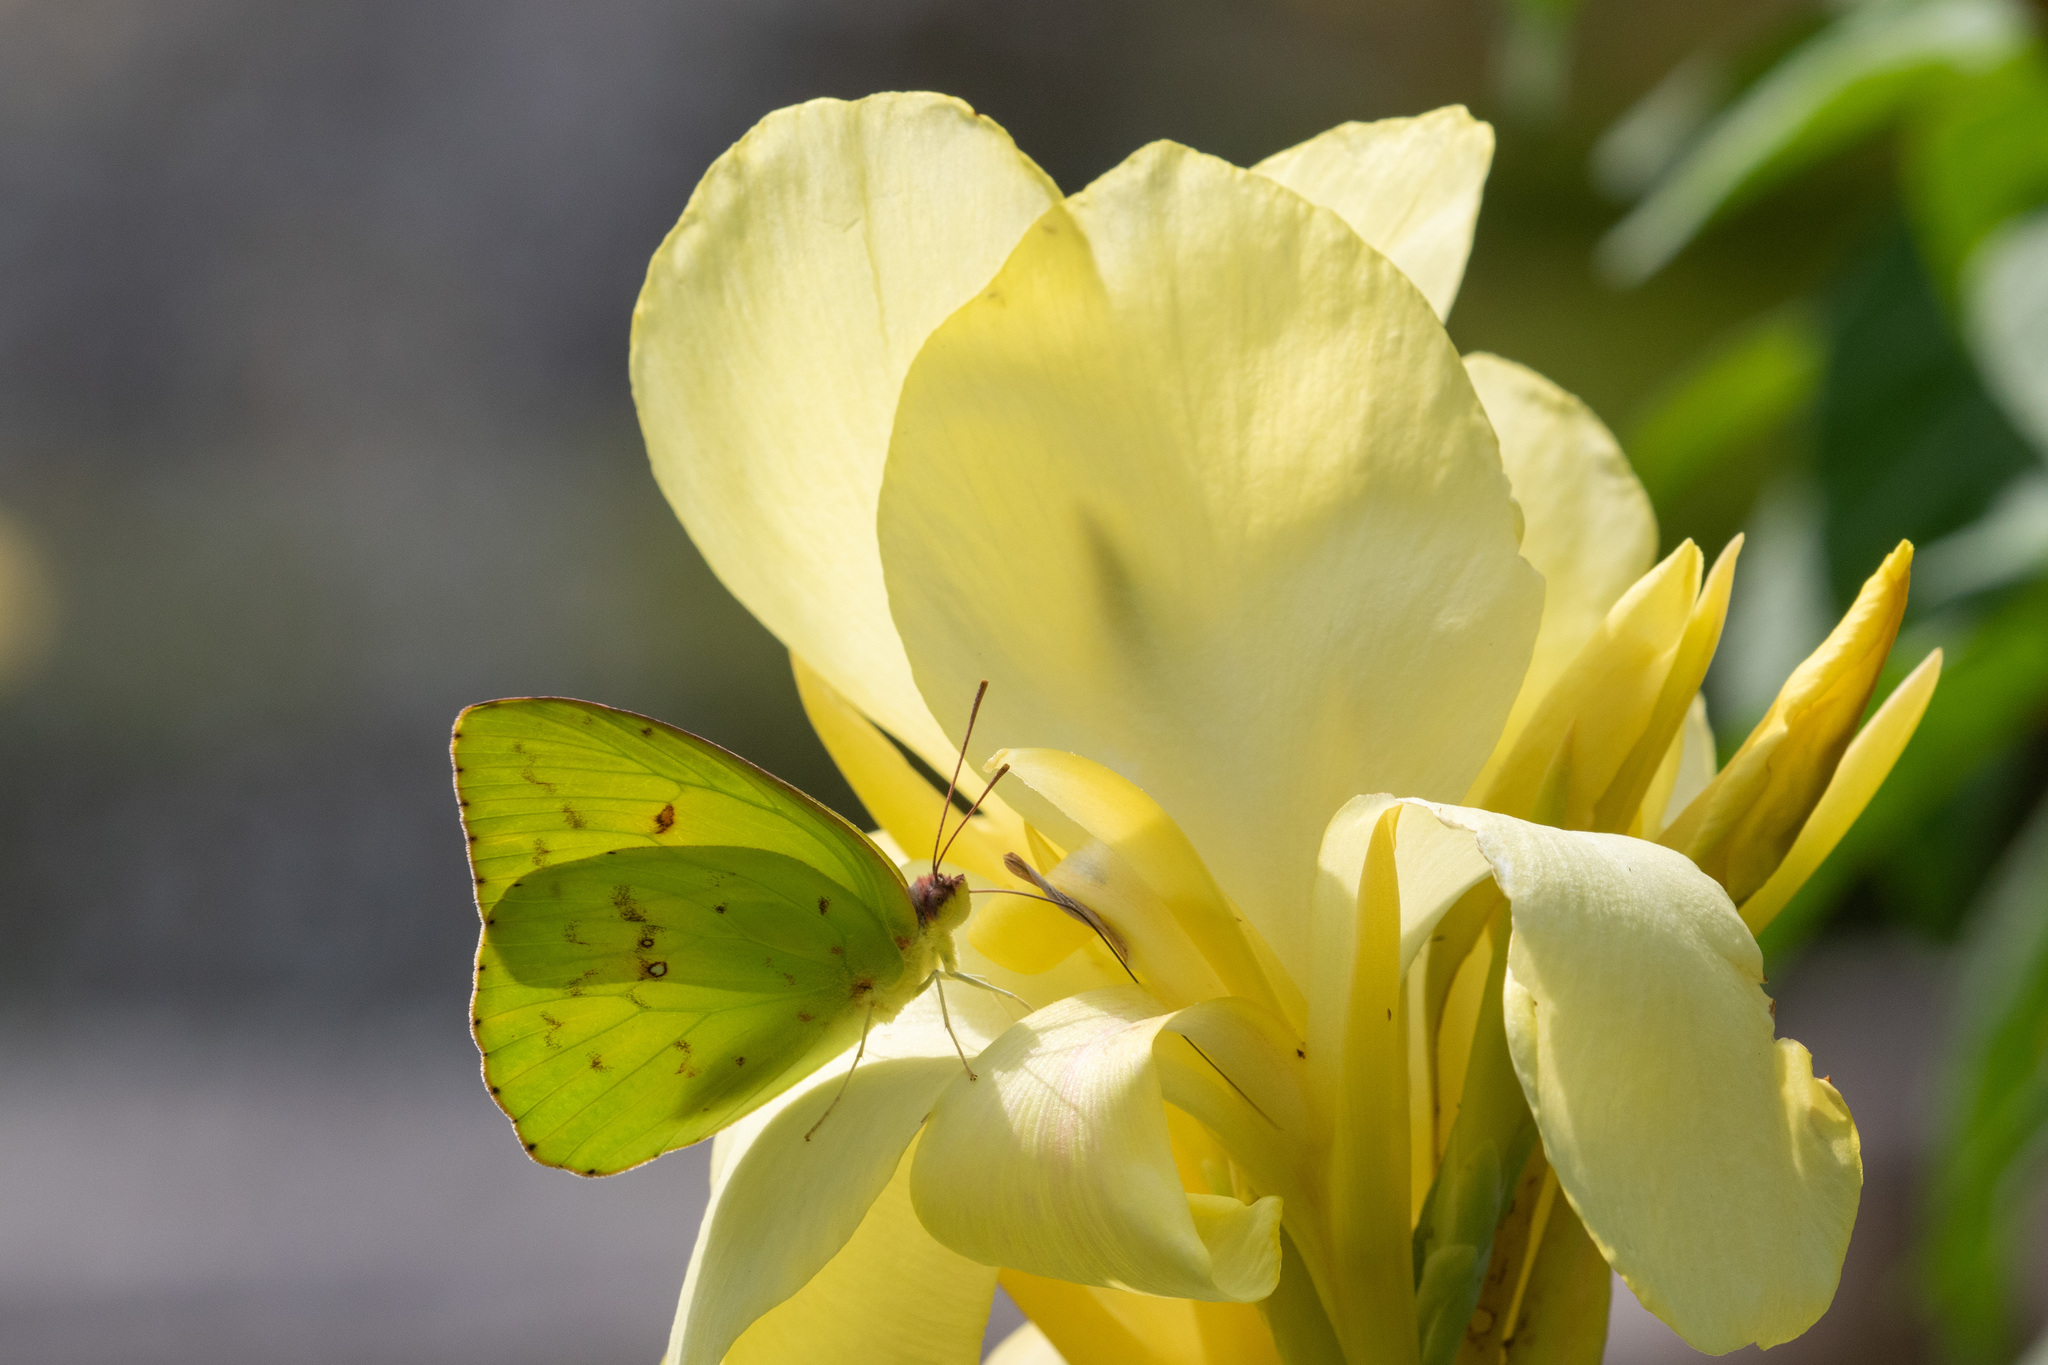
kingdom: Animalia
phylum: Arthropoda
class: Insecta
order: Lepidoptera
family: Pieridae
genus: Phoebis
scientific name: Phoebis sennae
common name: Cloudless sulphur
